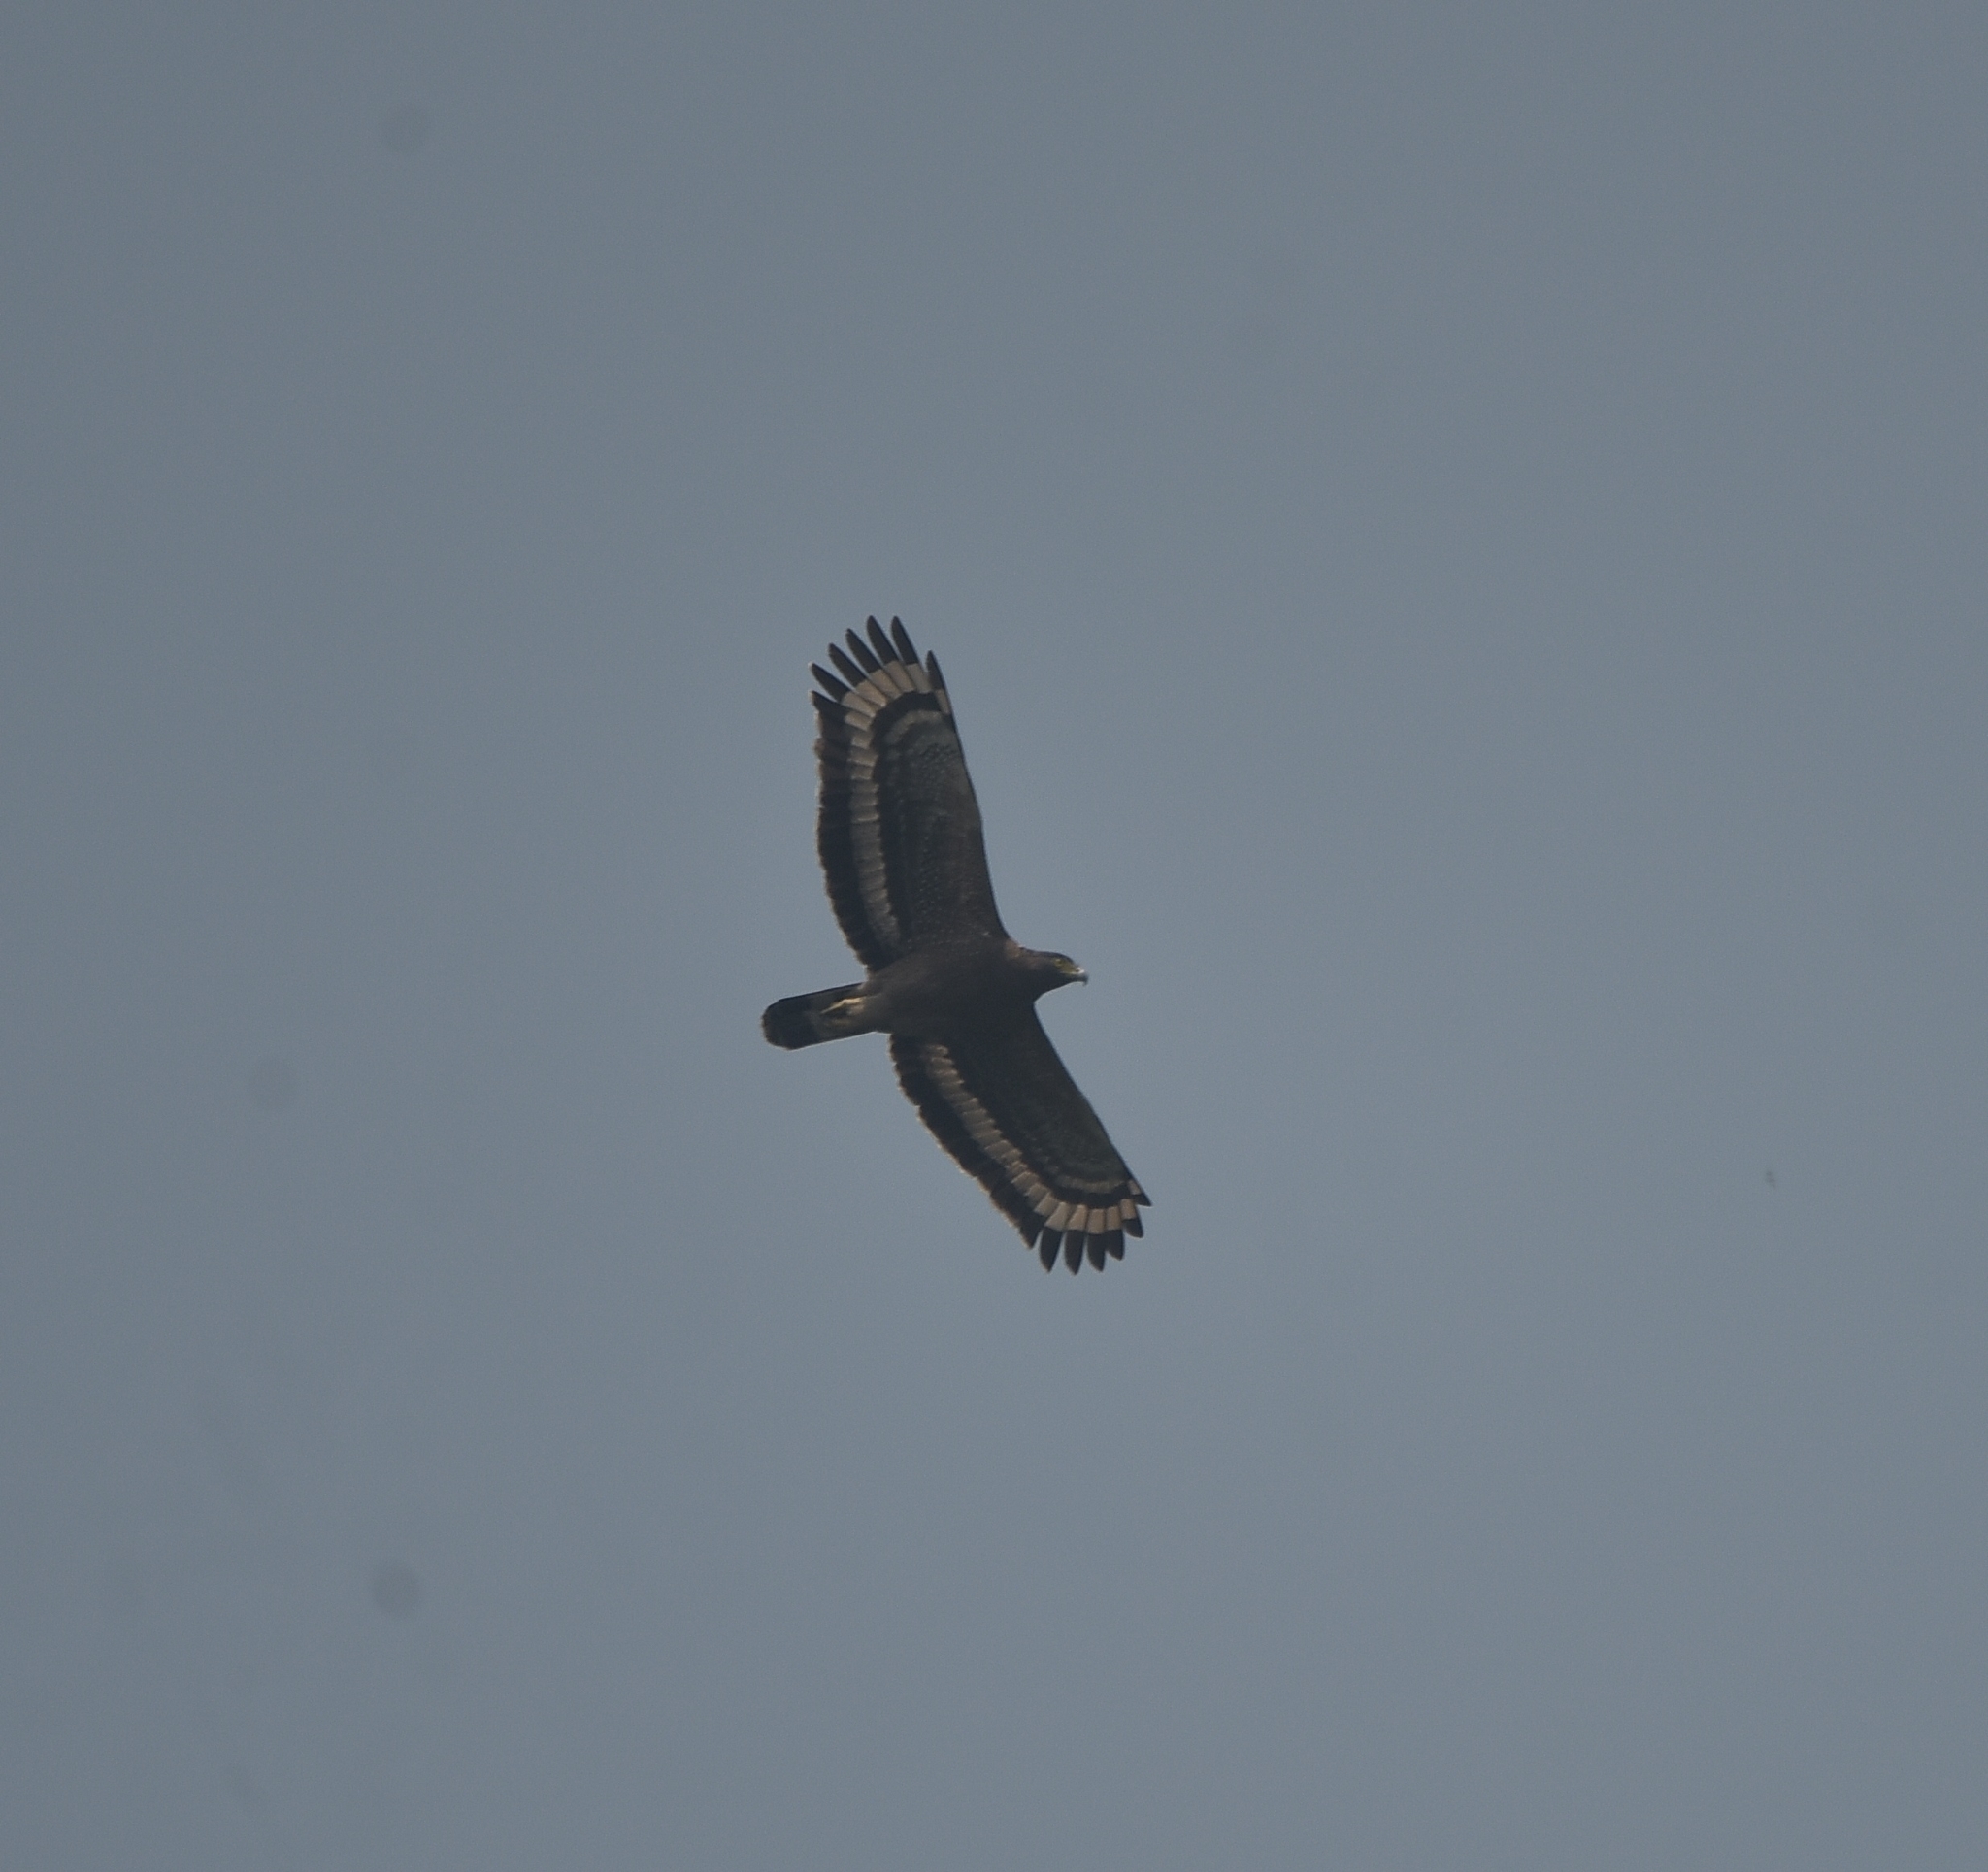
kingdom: Animalia
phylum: Chordata
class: Aves
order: Accipitriformes
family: Accipitridae
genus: Spilornis
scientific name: Spilornis cheela
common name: Crested serpent eagle
